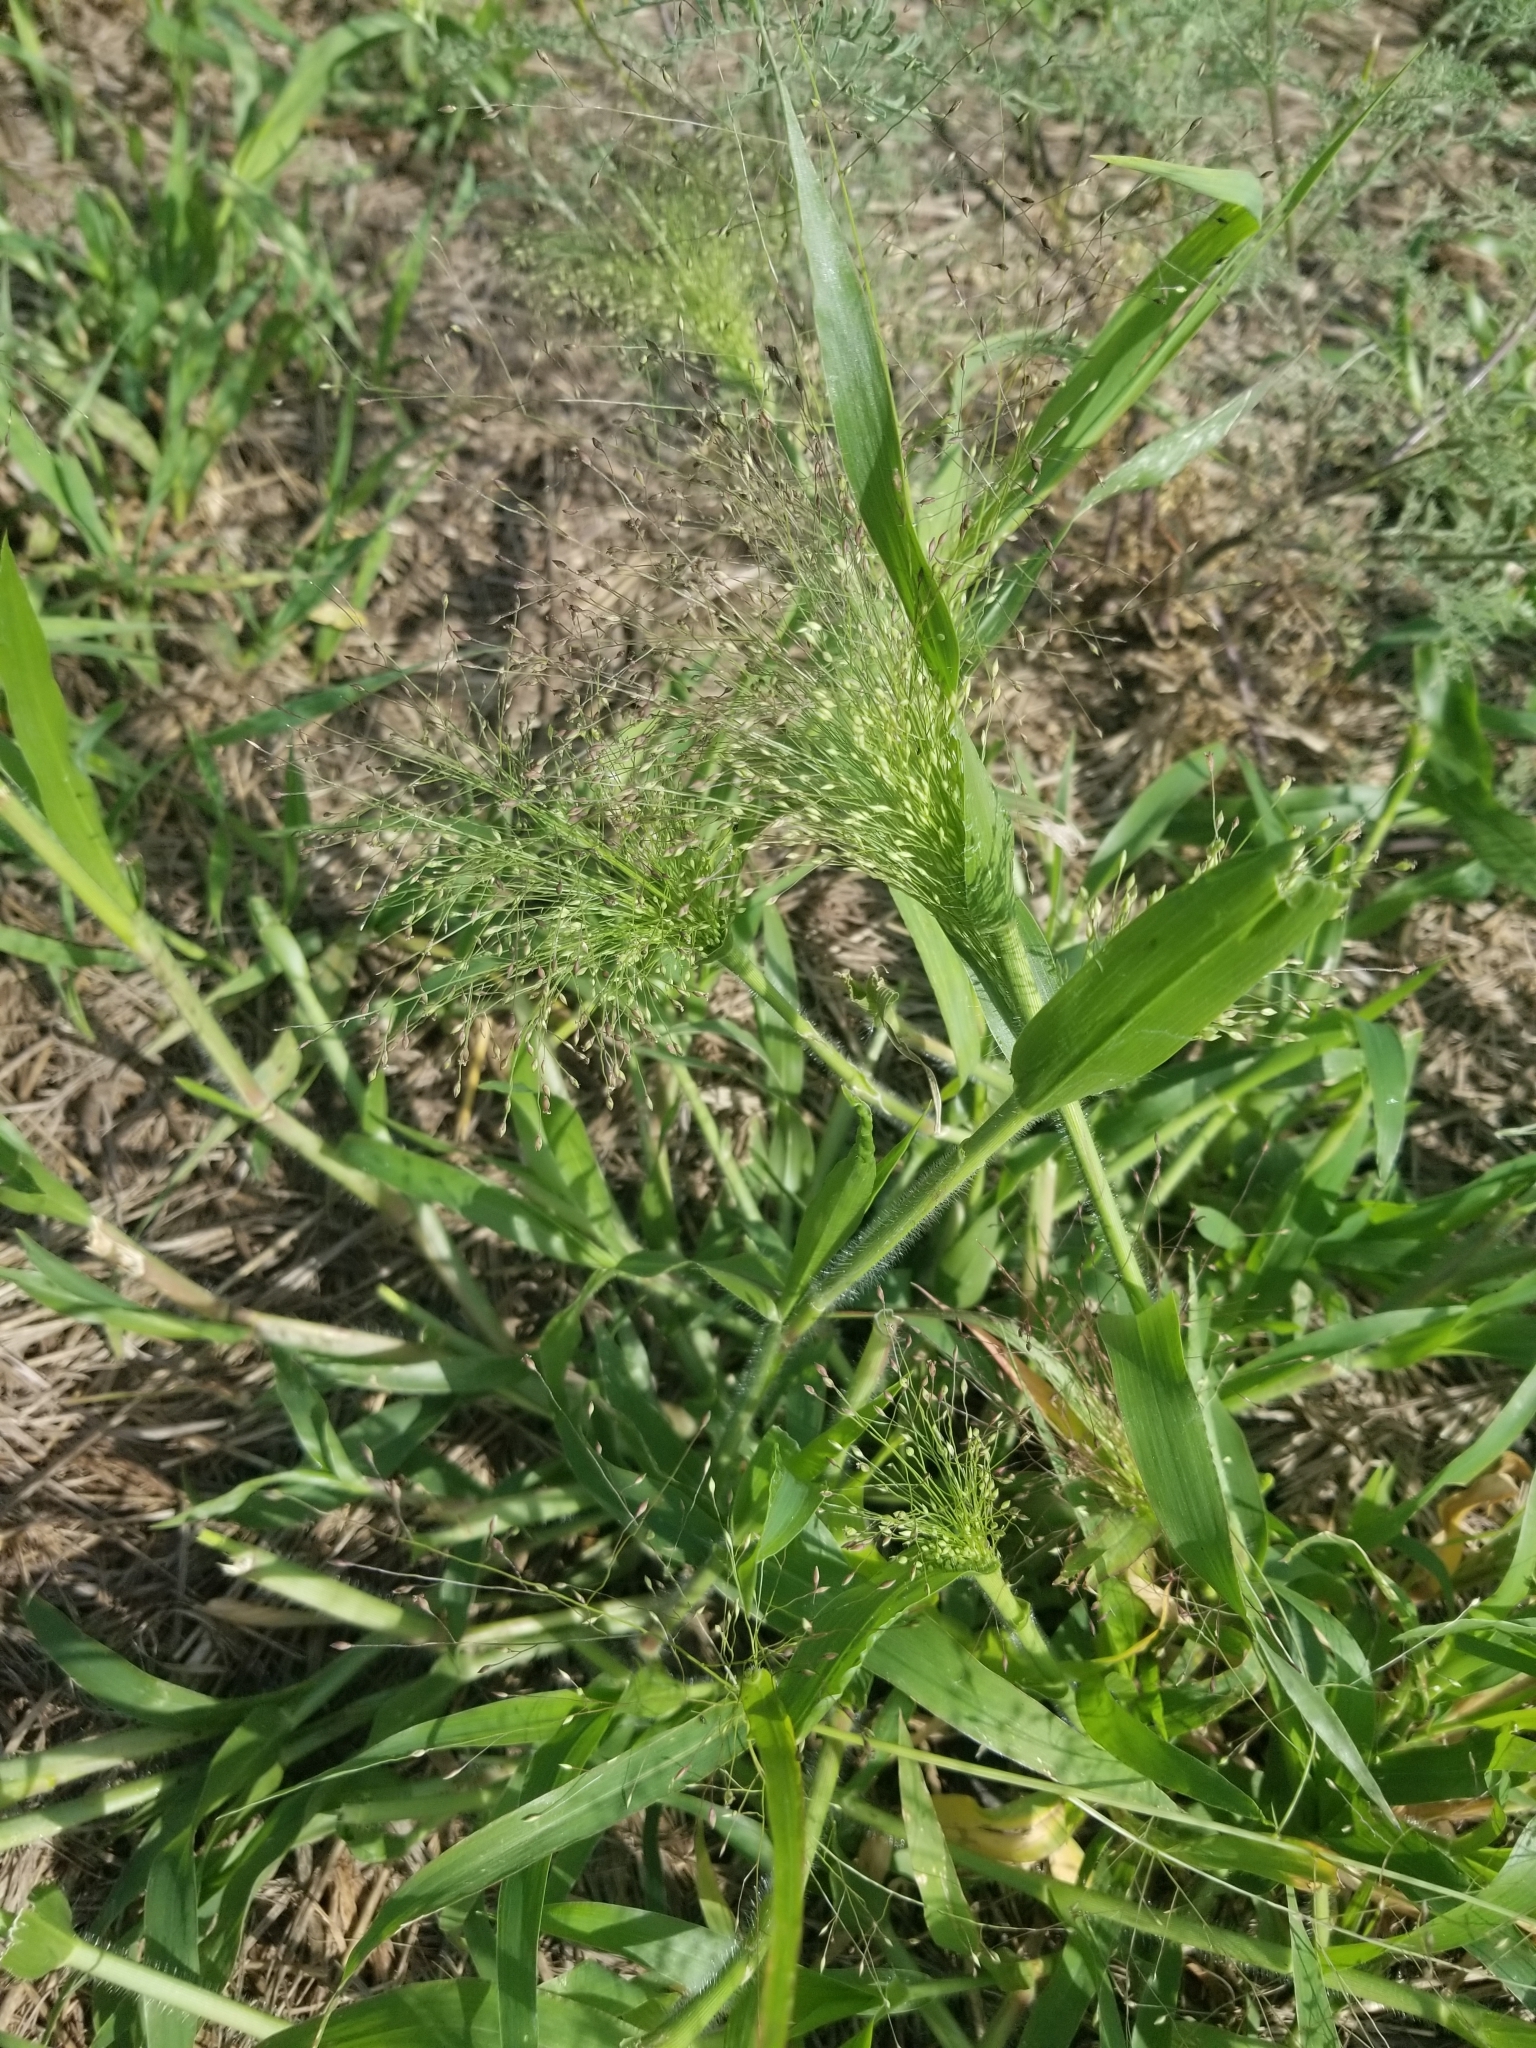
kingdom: Plantae
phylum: Tracheophyta
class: Liliopsida
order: Poales
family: Poaceae
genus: Panicum
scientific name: Panicum capillare
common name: Witch-grass
